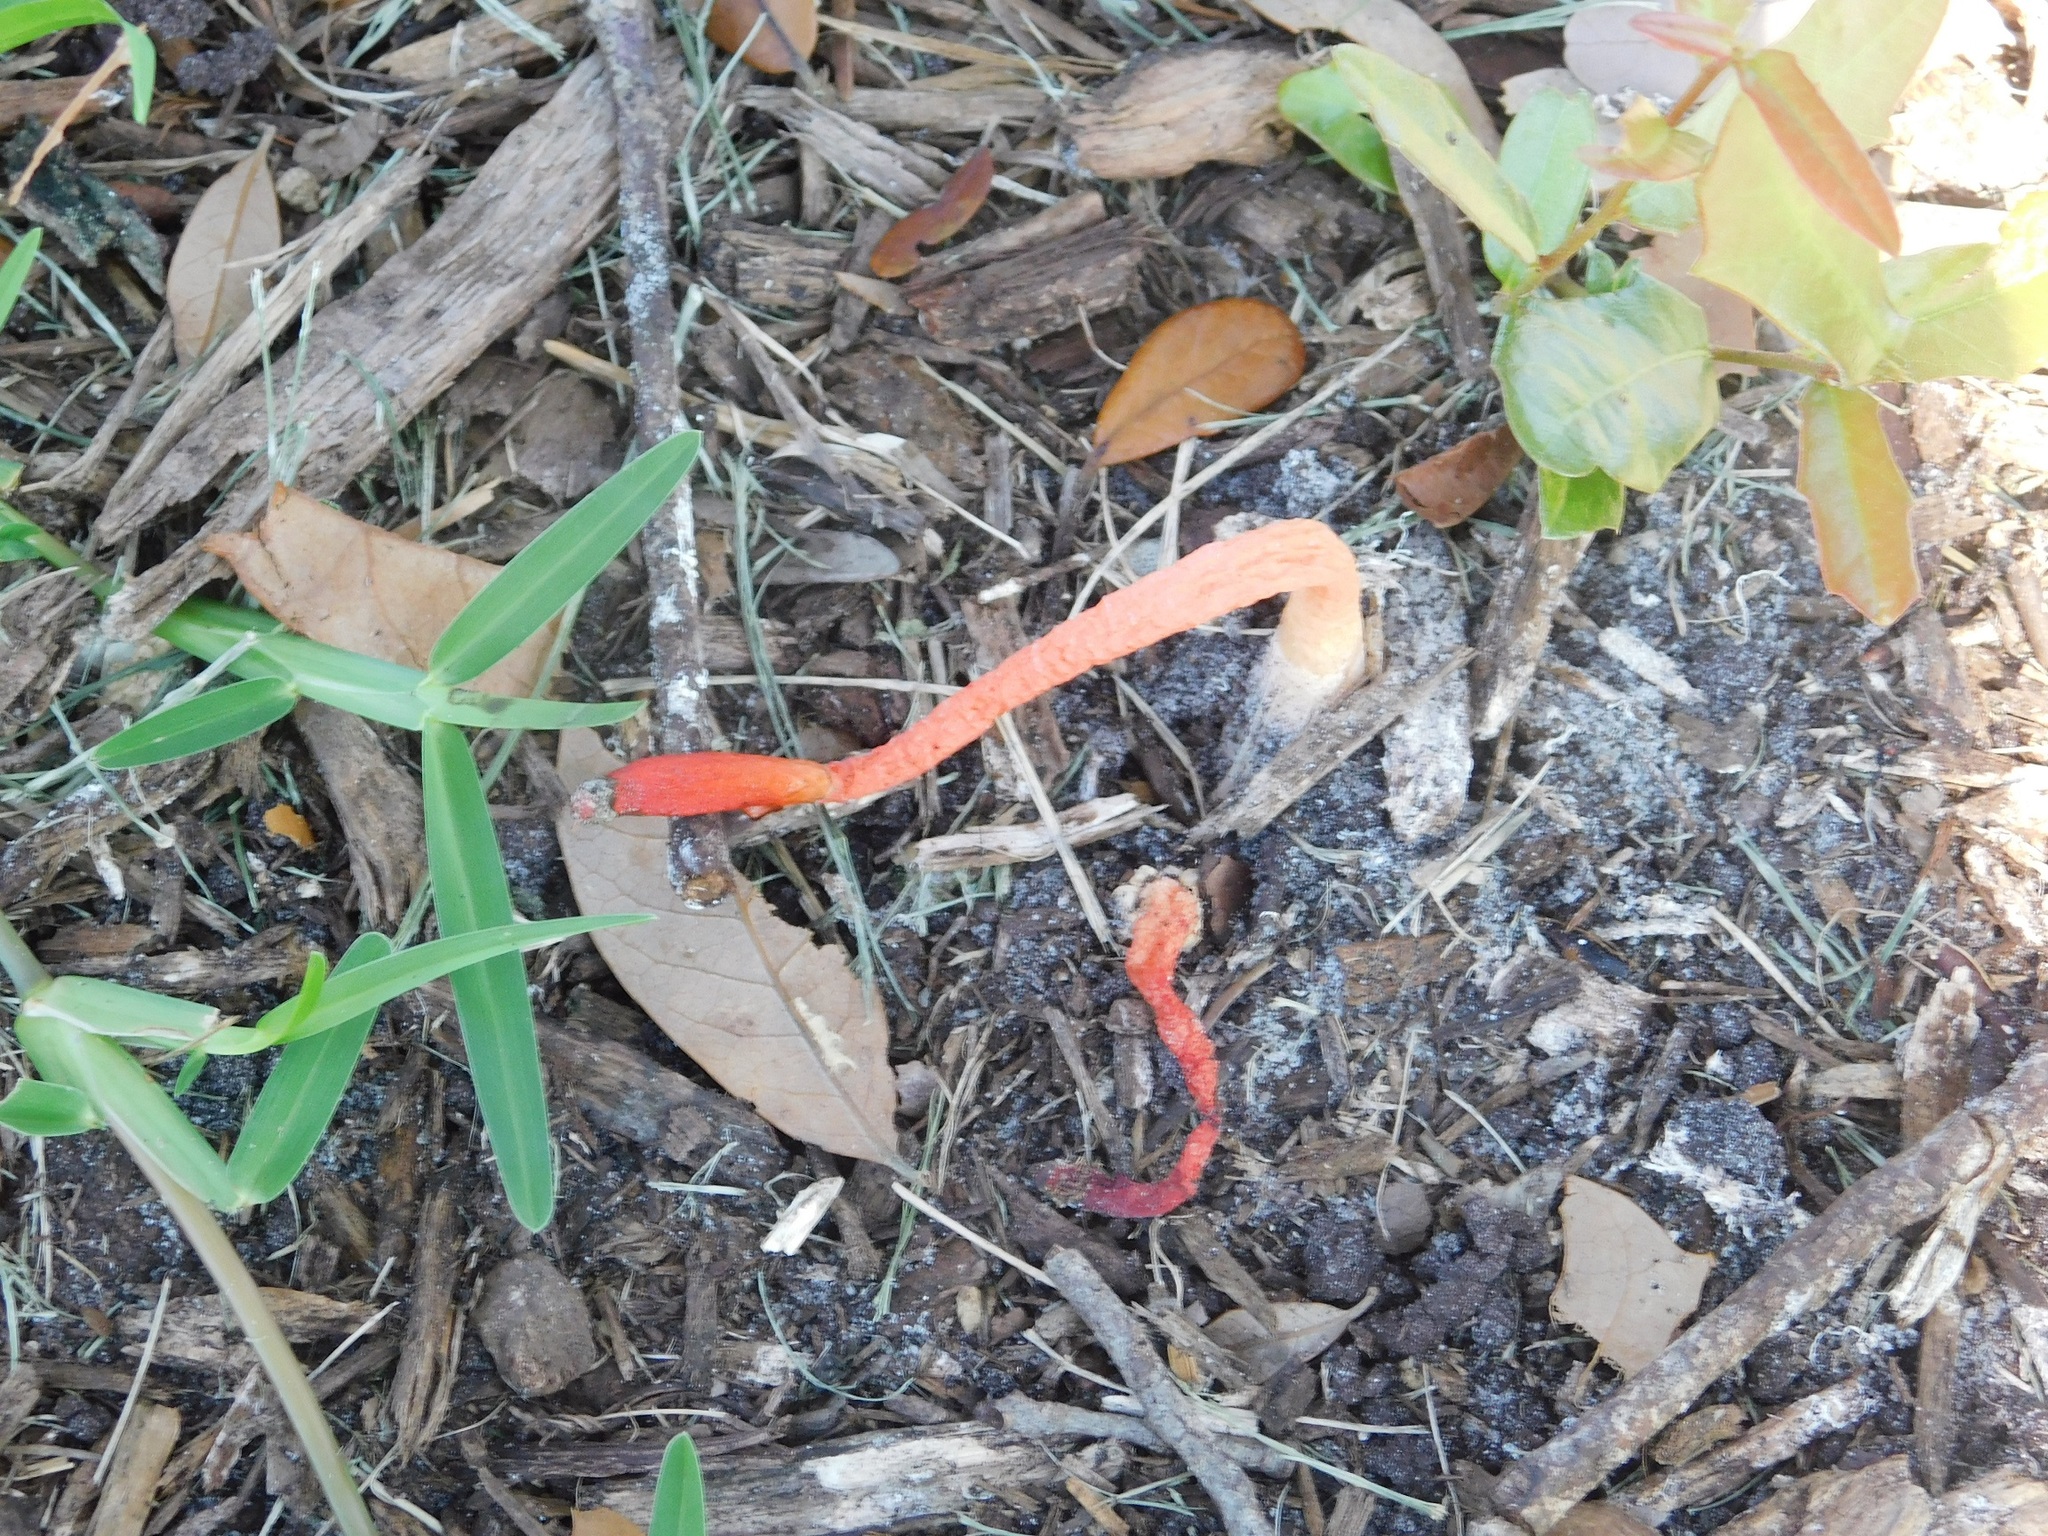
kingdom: Fungi
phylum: Basidiomycota
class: Agaricomycetes
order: Phallales
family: Phallaceae
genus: Phallus
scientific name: Phallus rugulosus
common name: Wrinkly stinkhorn
